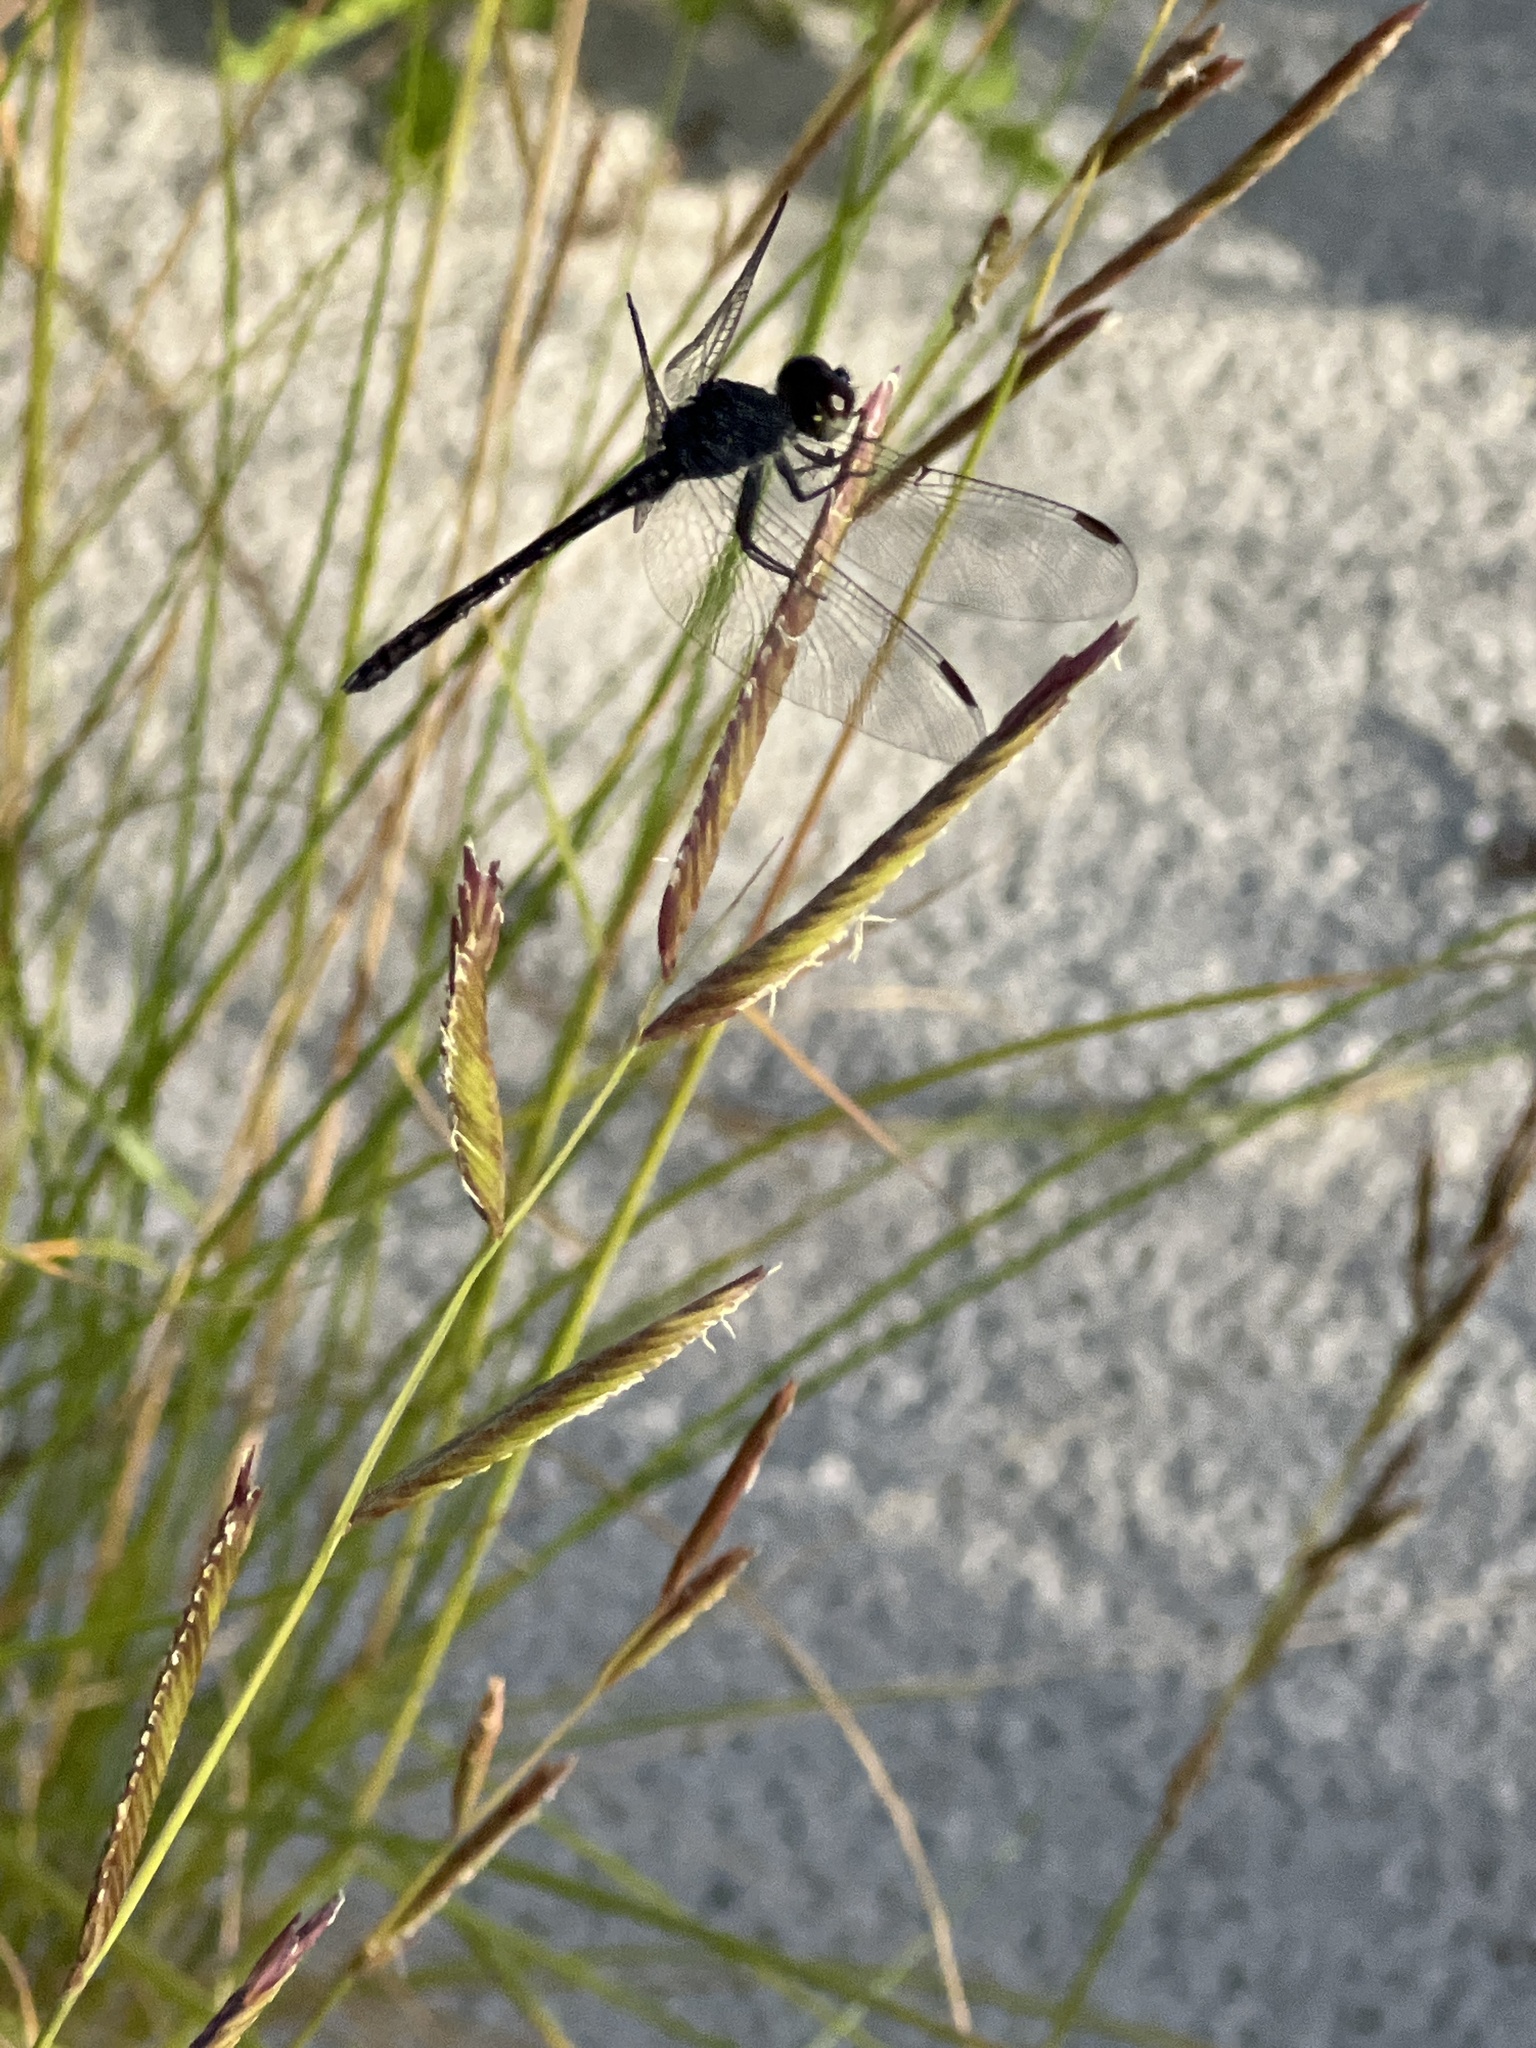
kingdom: Animalia
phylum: Arthropoda
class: Insecta
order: Odonata
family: Libellulidae
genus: Erythrodiplax
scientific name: Erythrodiplax berenice
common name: Seaside dragonlet
